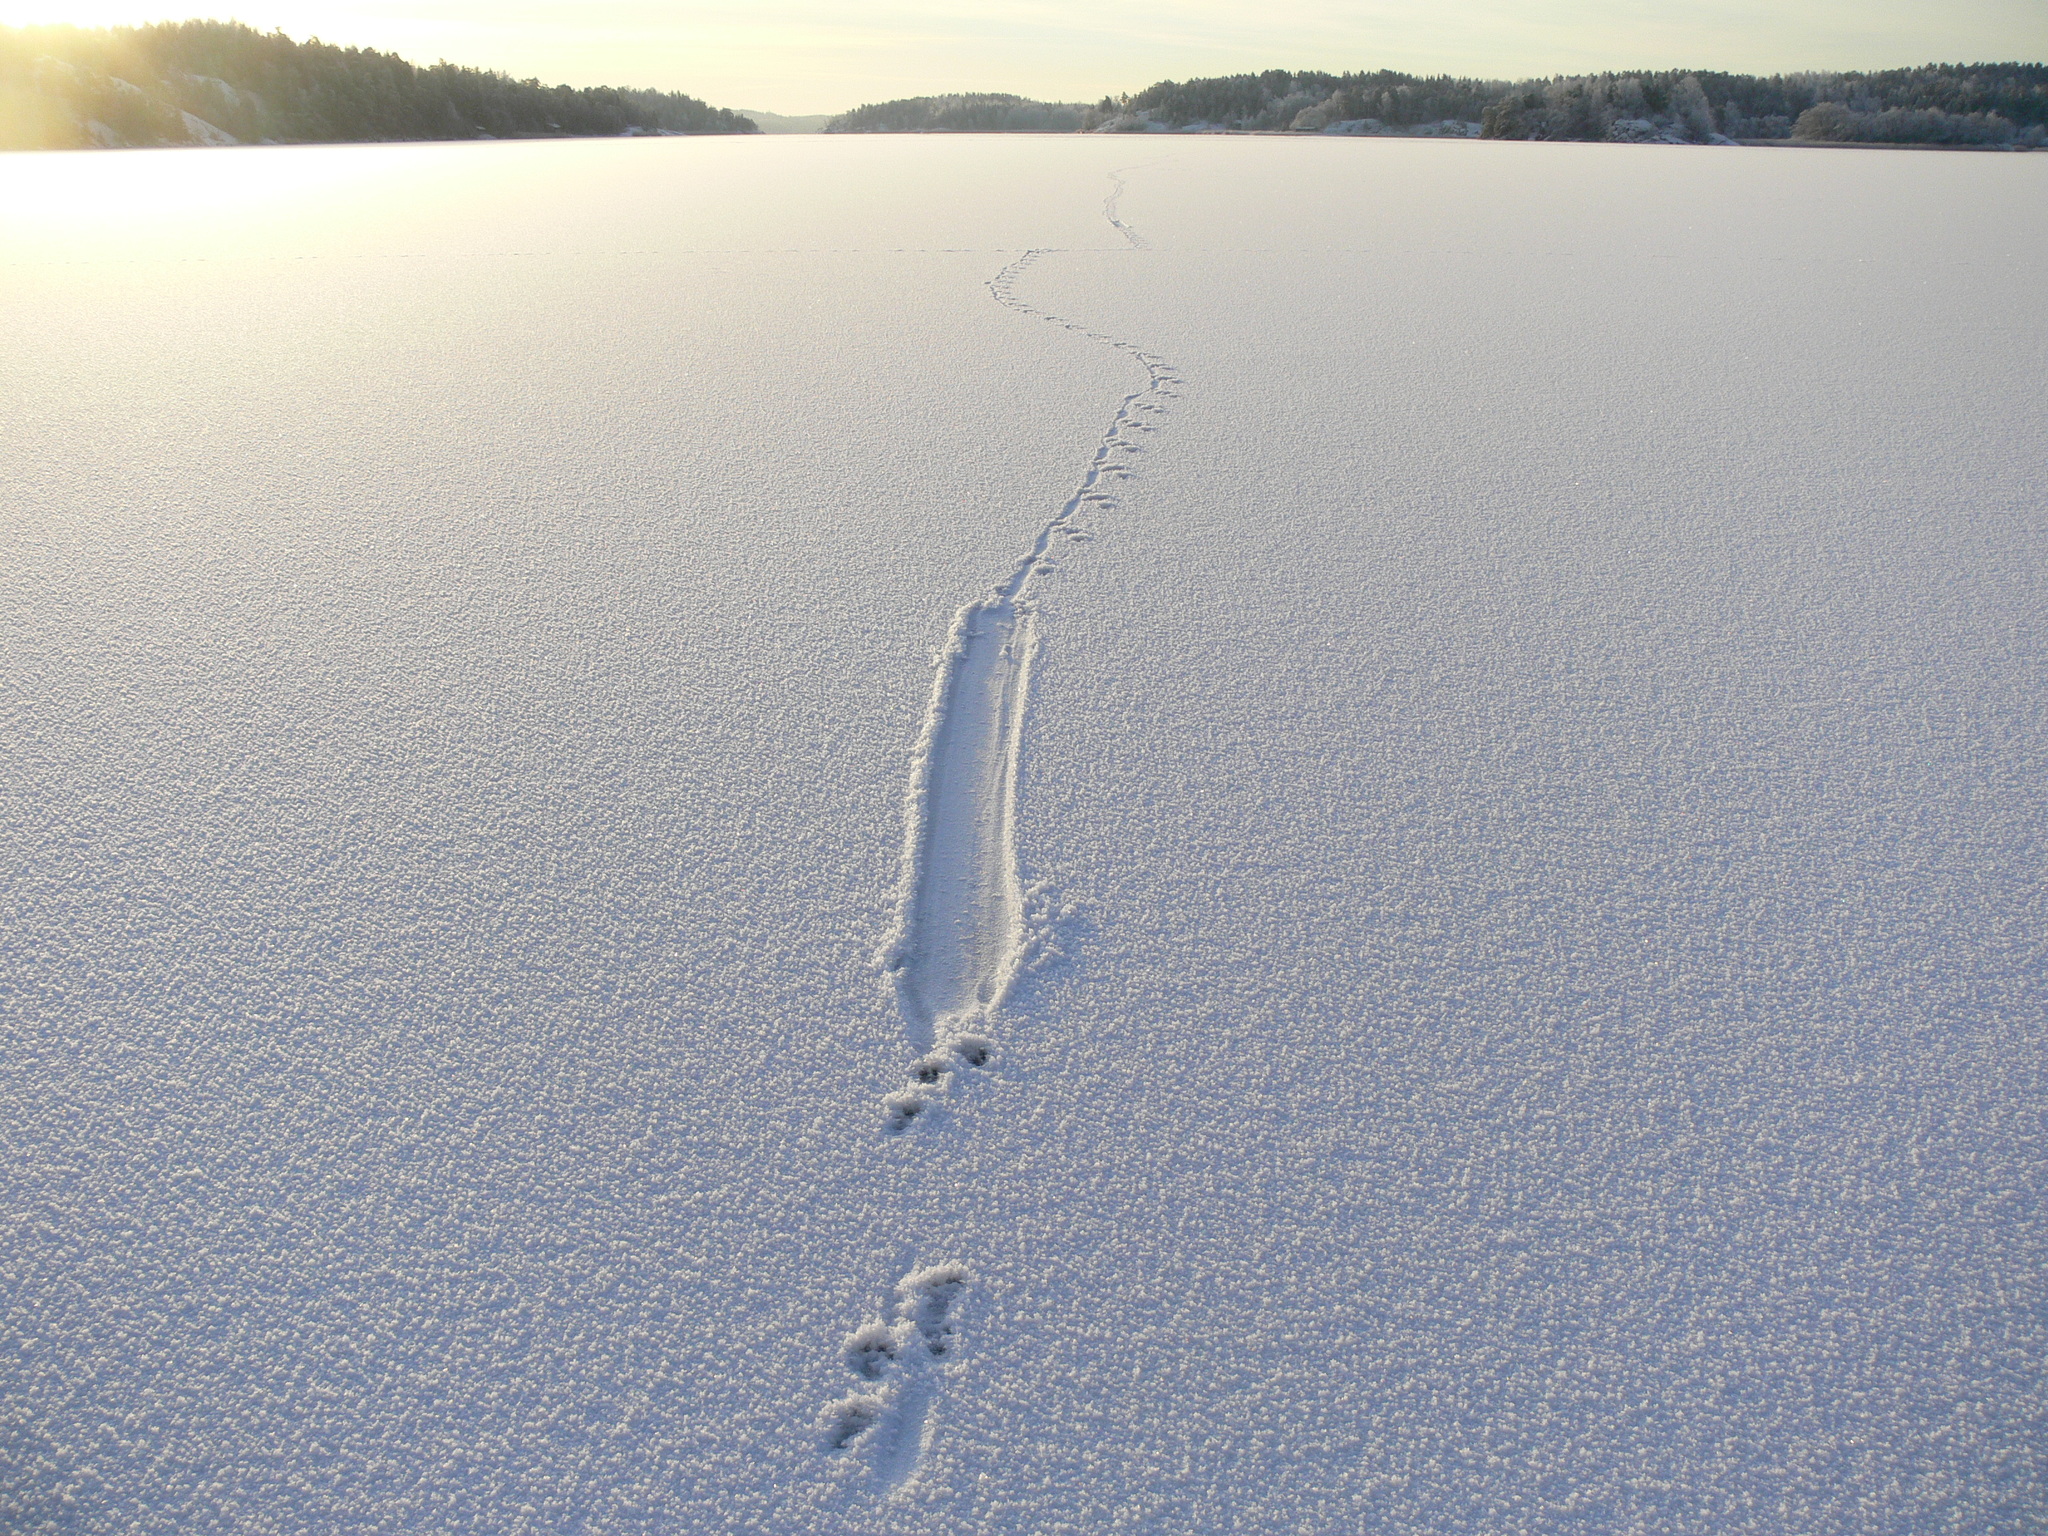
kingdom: Animalia
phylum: Chordata
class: Mammalia
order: Carnivora
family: Mustelidae
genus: Lutra
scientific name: Lutra lutra
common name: European otter
